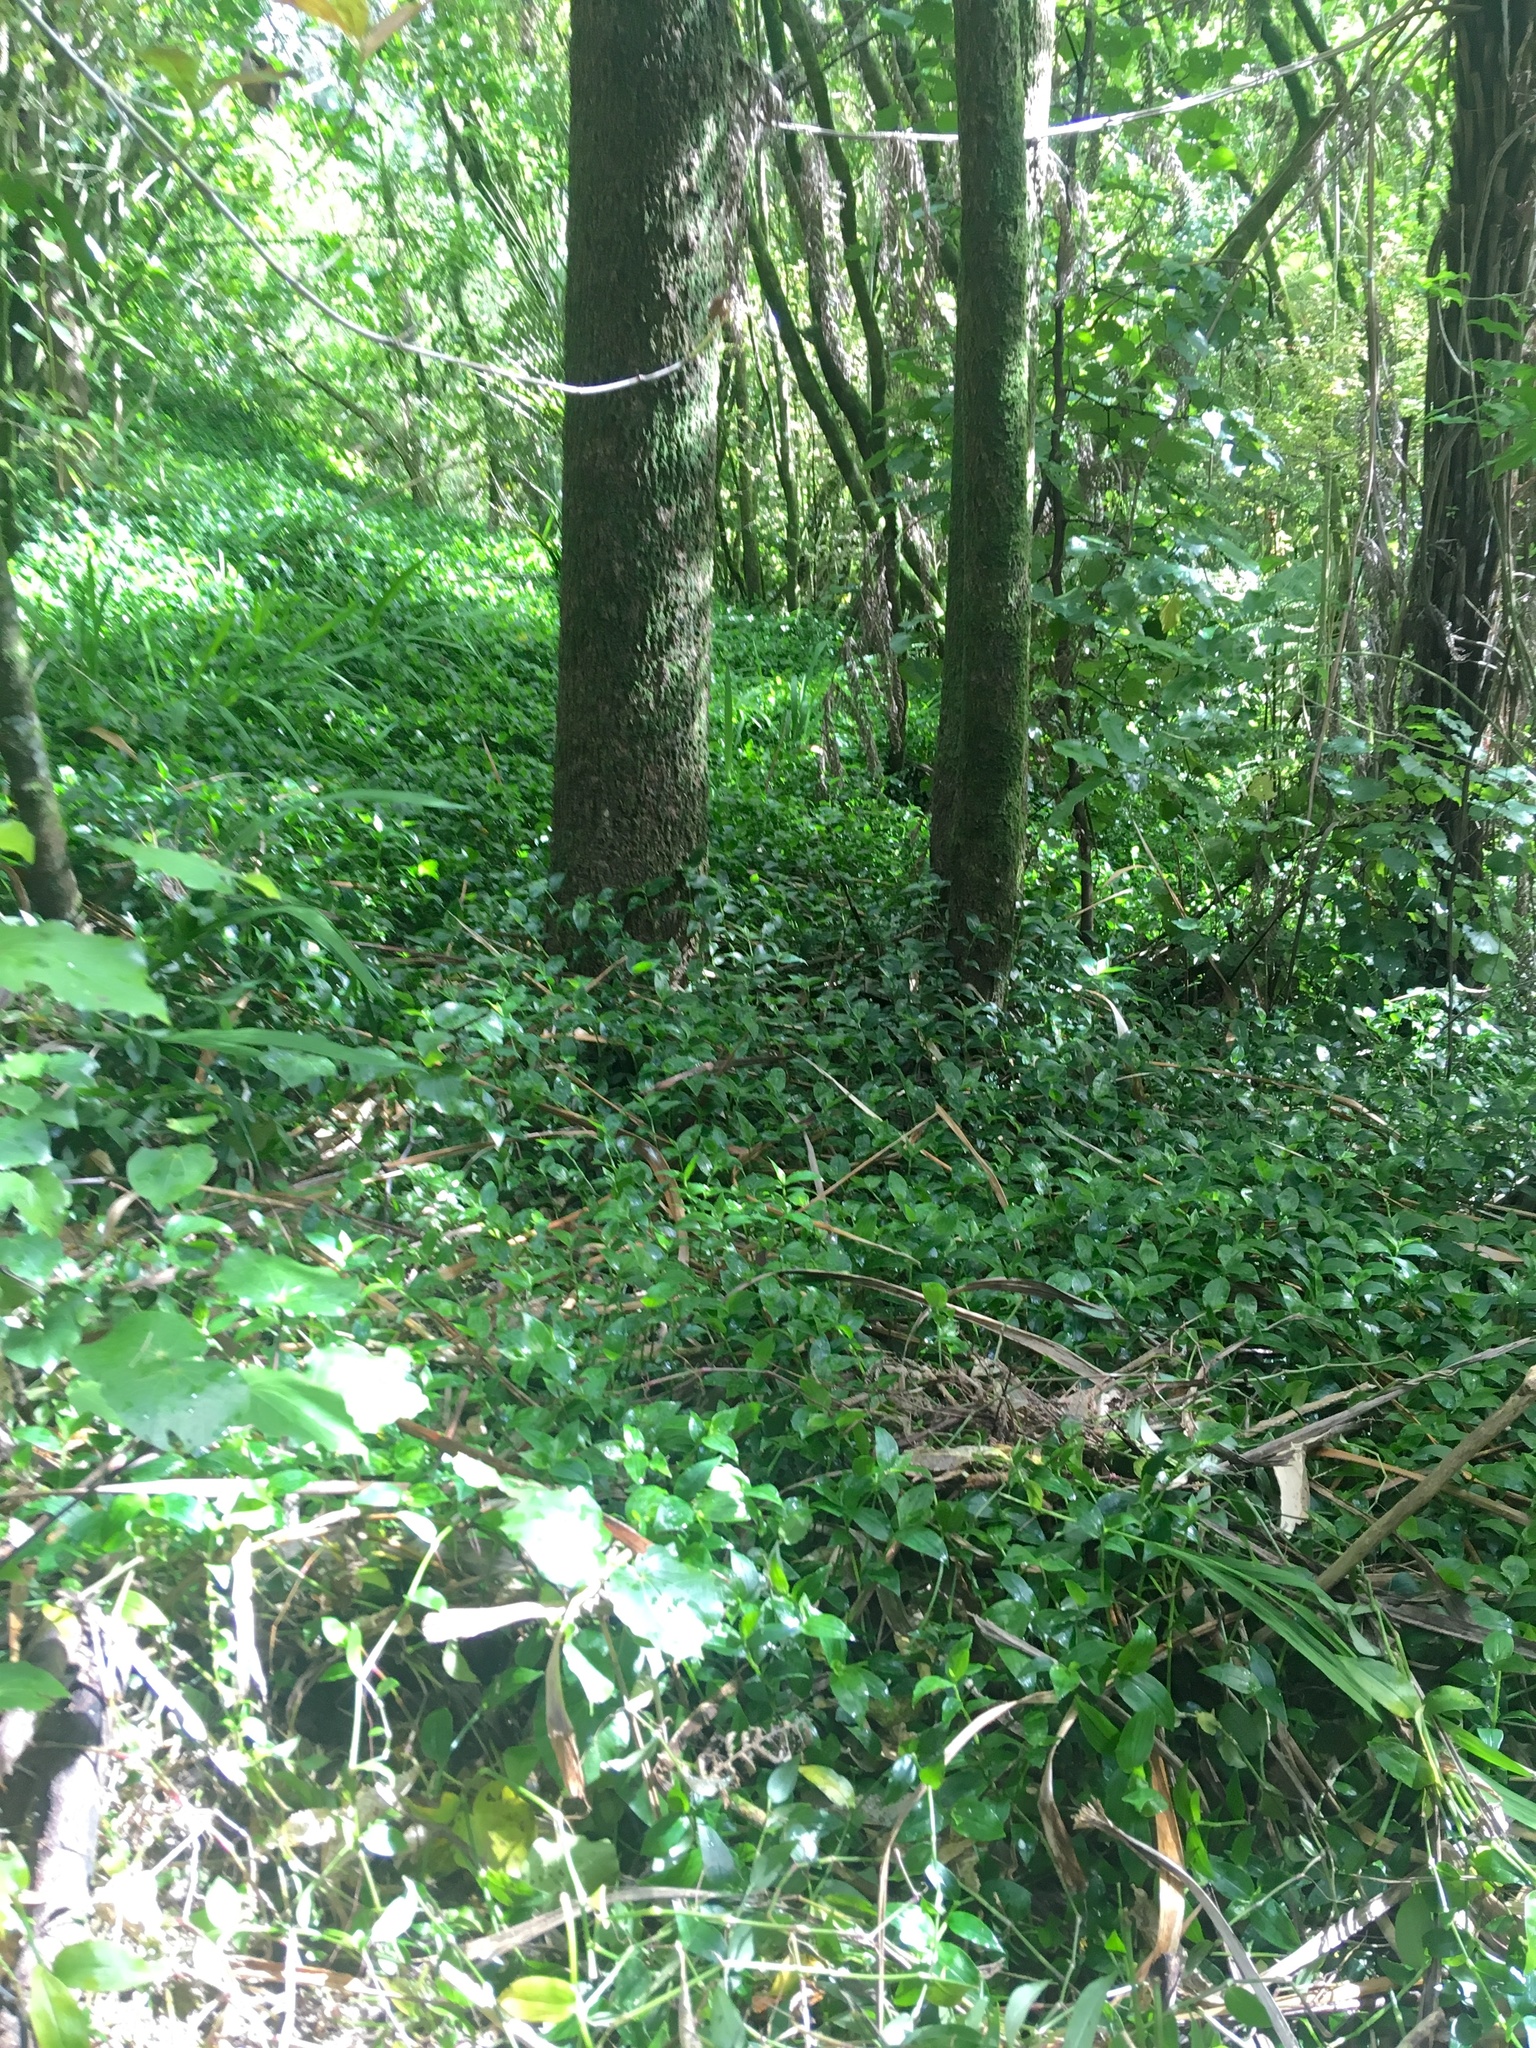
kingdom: Plantae
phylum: Tracheophyta
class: Liliopsida
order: Commelinales
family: Commelinaceae
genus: Tradescantia
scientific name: Tradescantia fluminensis
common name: Wandering-jew
